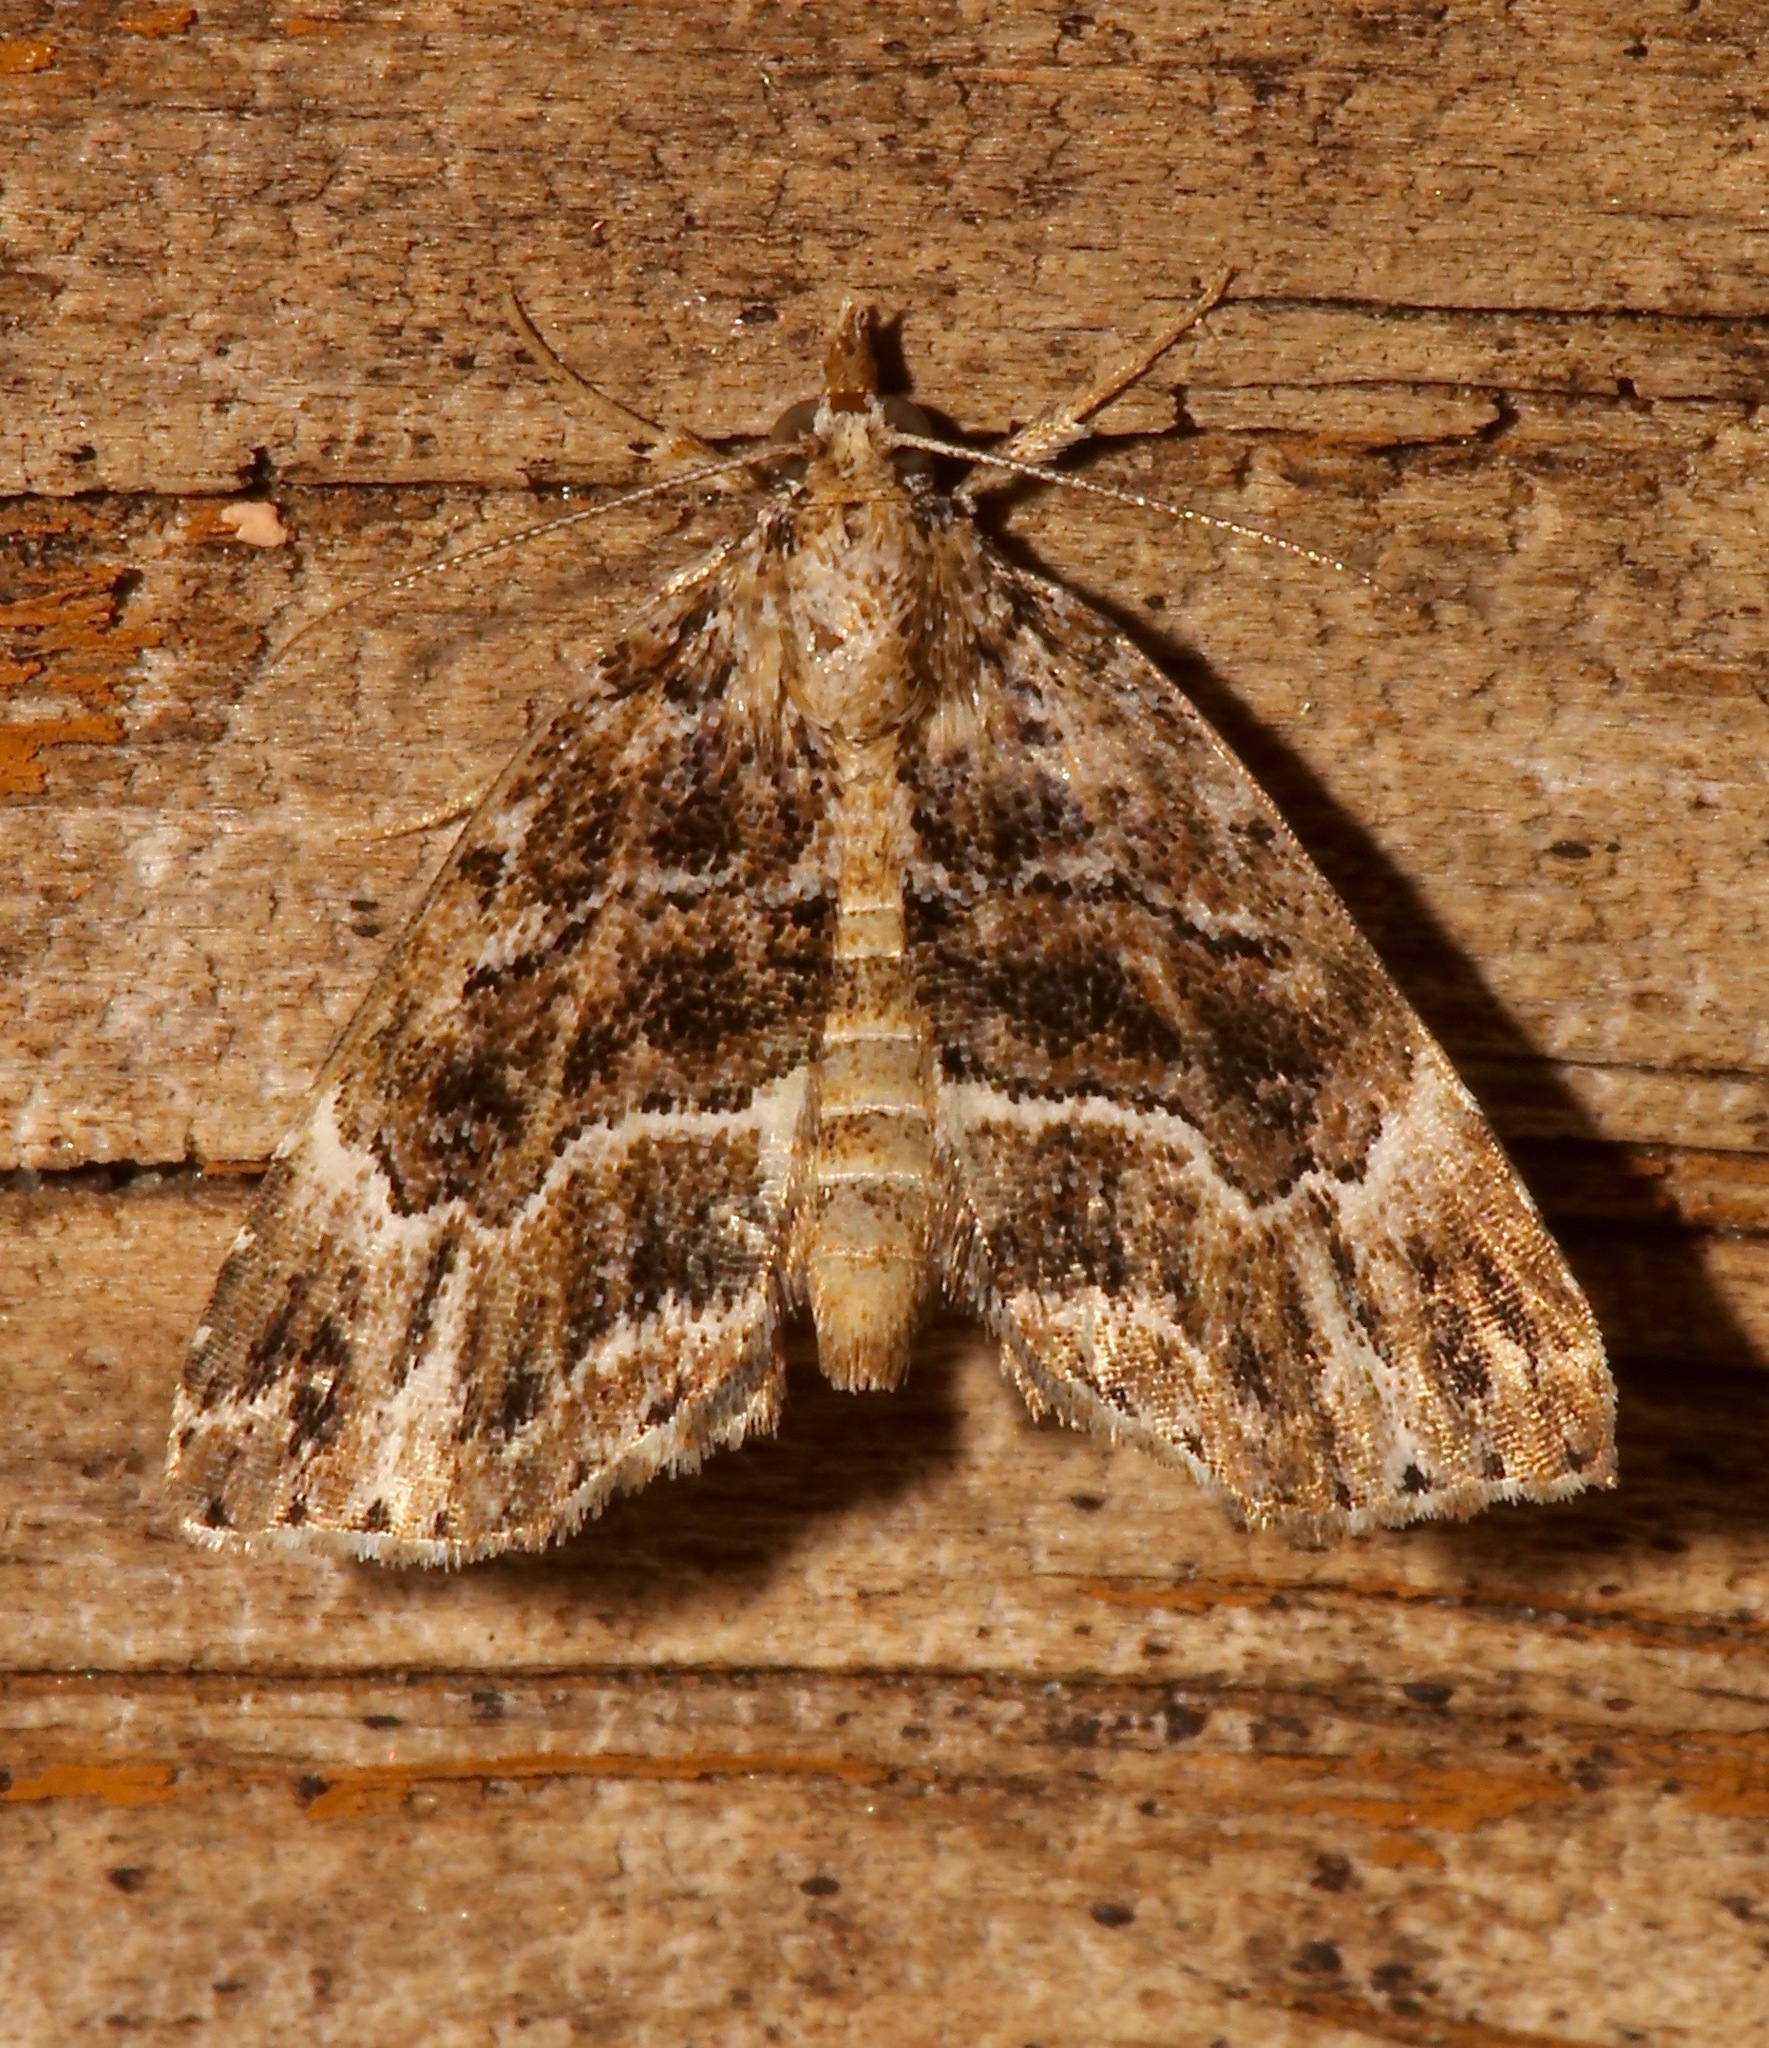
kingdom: Animalia
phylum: Arthropoda
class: Insecta
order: Lepidoptera
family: Erebidae
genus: Cutina
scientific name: Cutina arcuata
